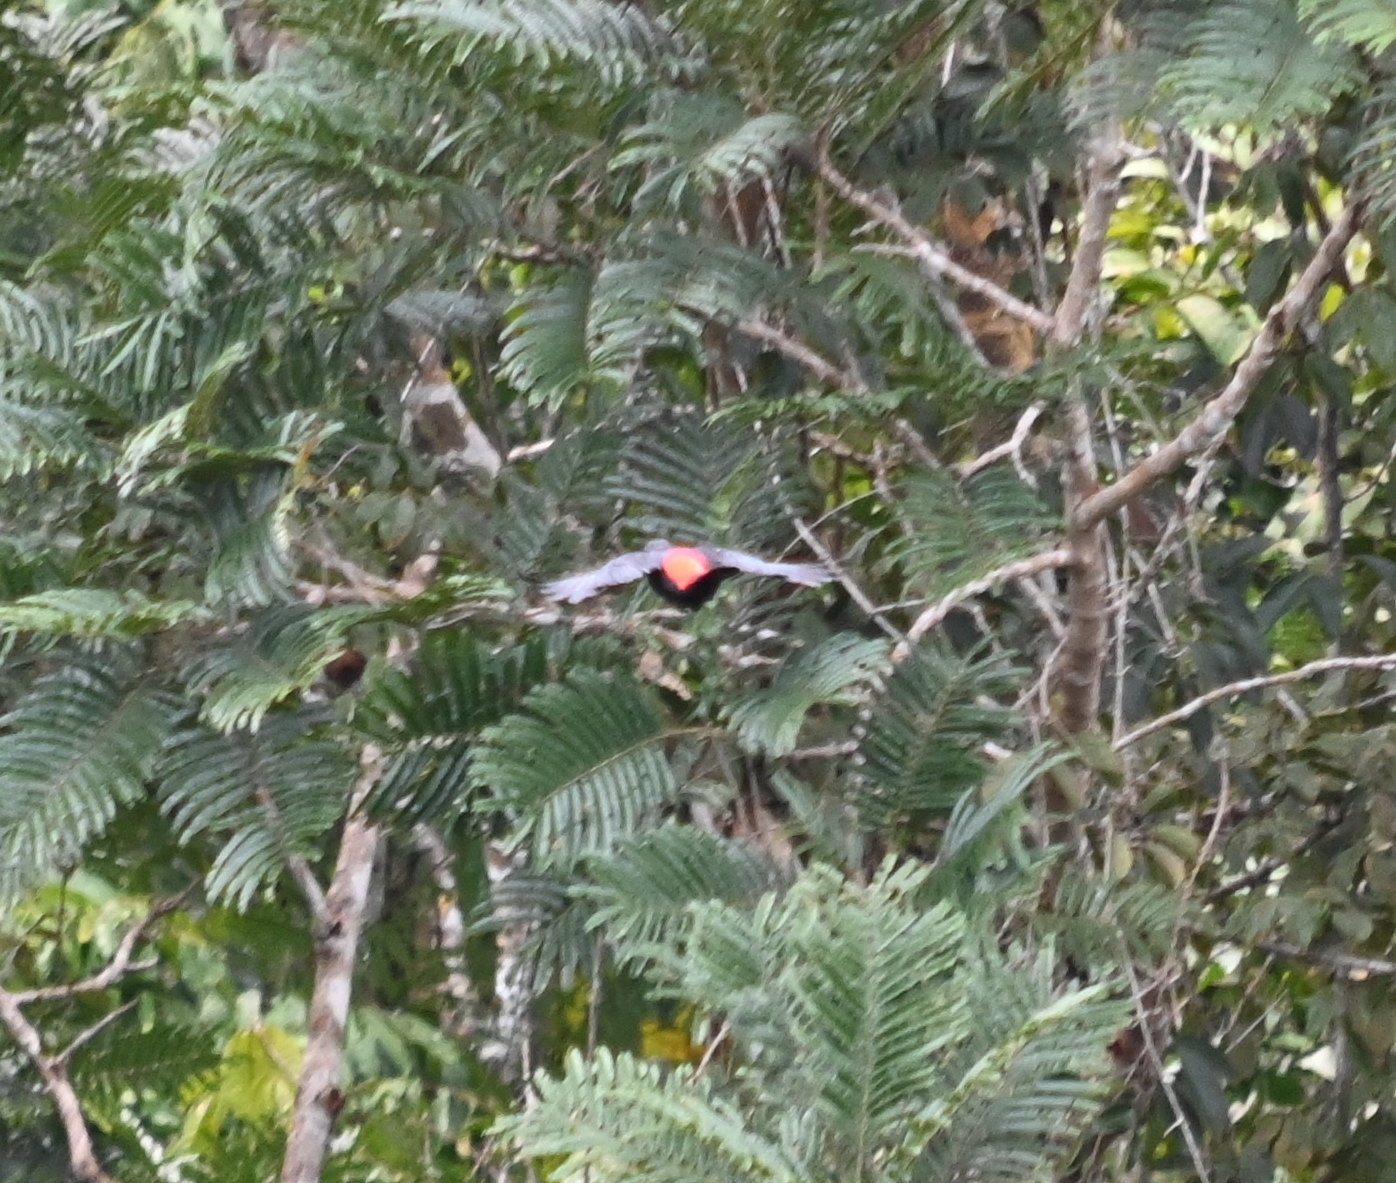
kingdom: Animalia
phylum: Chordata
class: Aves
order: Passeriformes
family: Icteridae
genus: Cacicus
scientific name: Cacicus haemorrhous
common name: Red-rumped cacique
